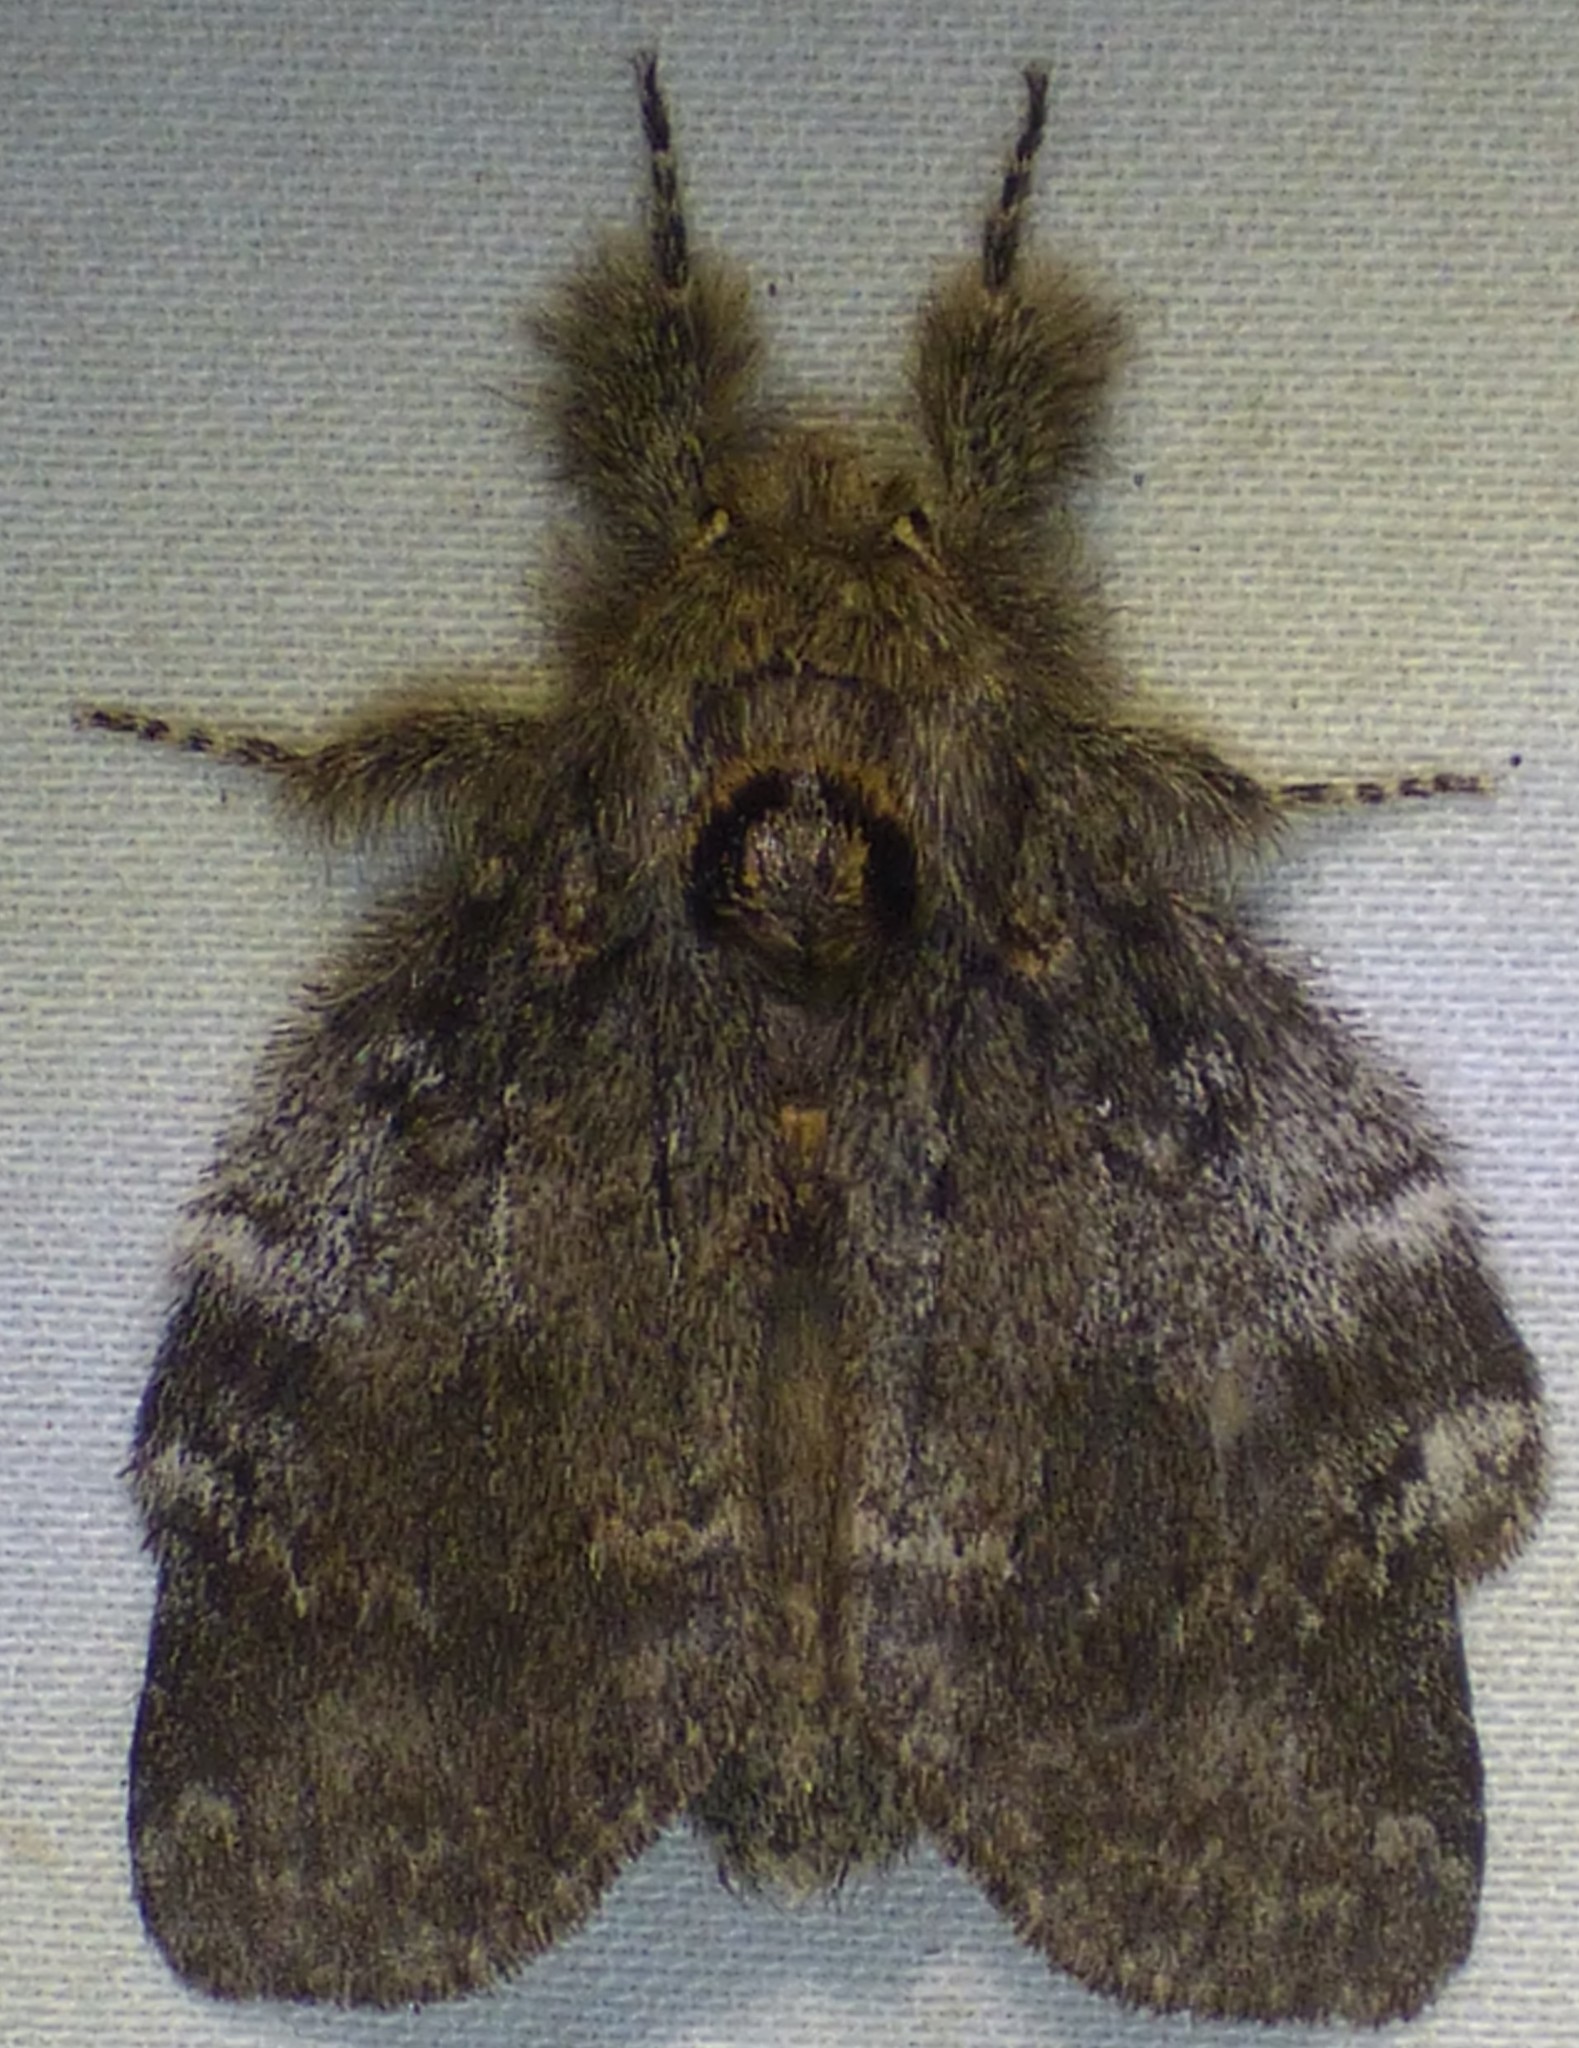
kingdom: Animalia
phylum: Arthropoda
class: Insecta
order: Lepidoptera
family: Notodontidae
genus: Peridea
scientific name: Peridea angulosa
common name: Angulose prominent
